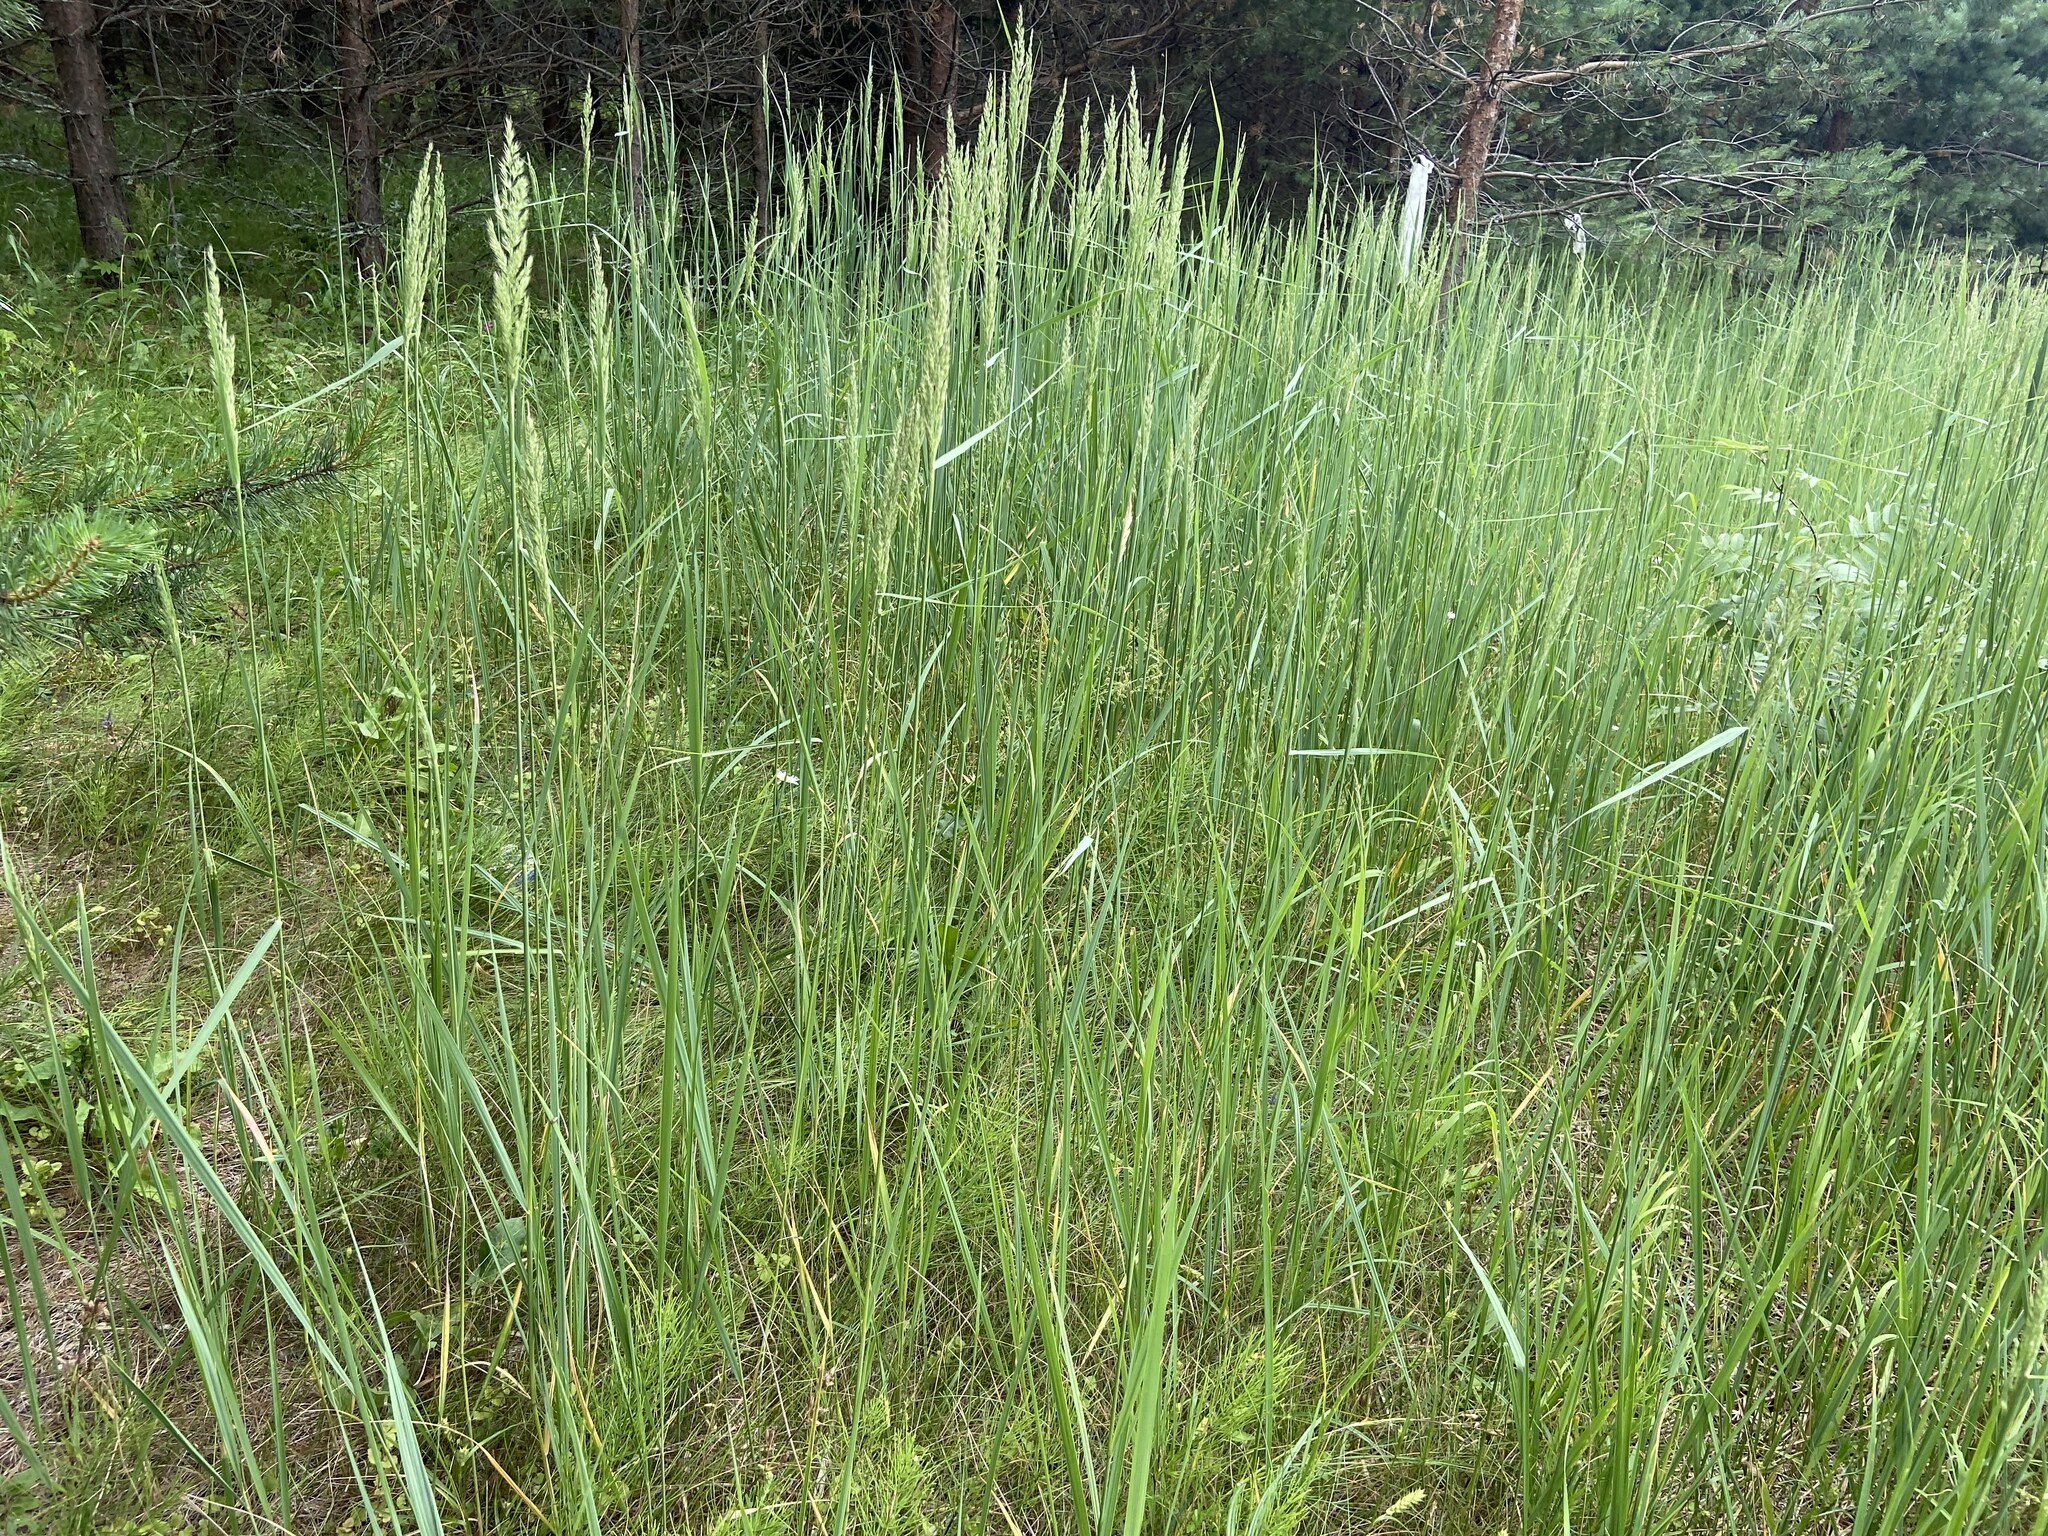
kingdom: Plantae
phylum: Tracheophyta
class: Liliopsida
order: Poales
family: Poaceae
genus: Calamagrostis
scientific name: Calamagrostis epigejos
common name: Wood small-reed
